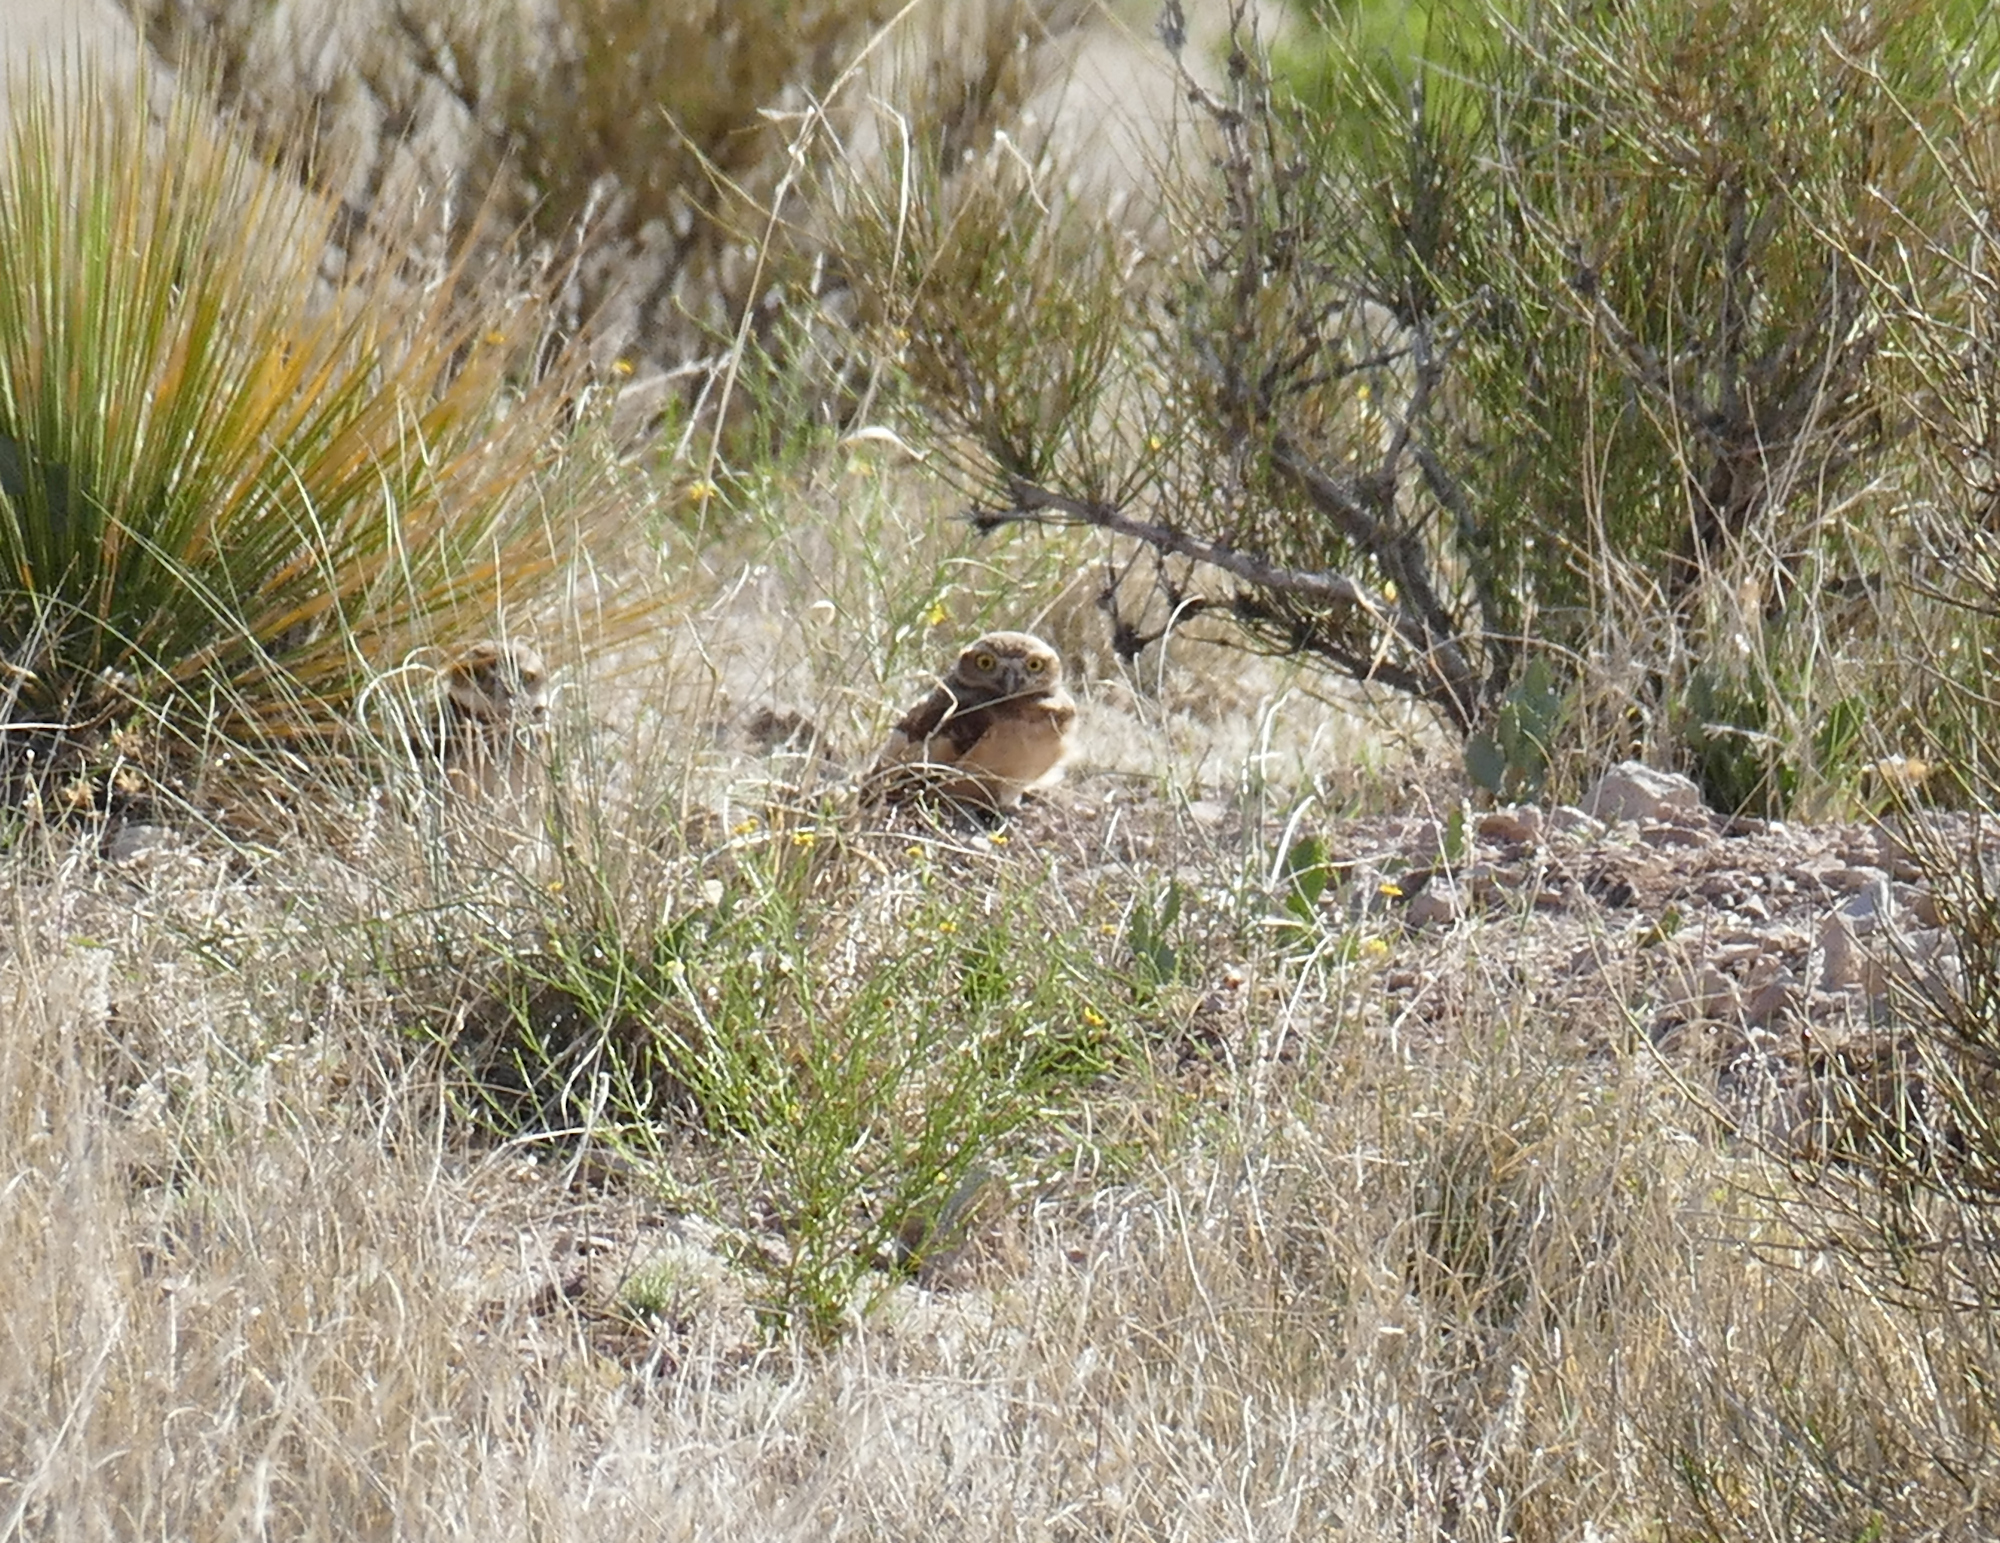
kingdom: Animalia
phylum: Chordata
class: Aves
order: Strigiformes
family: Strigidae
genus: Athene
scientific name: Athene cunicularia
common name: Burrowing owl
